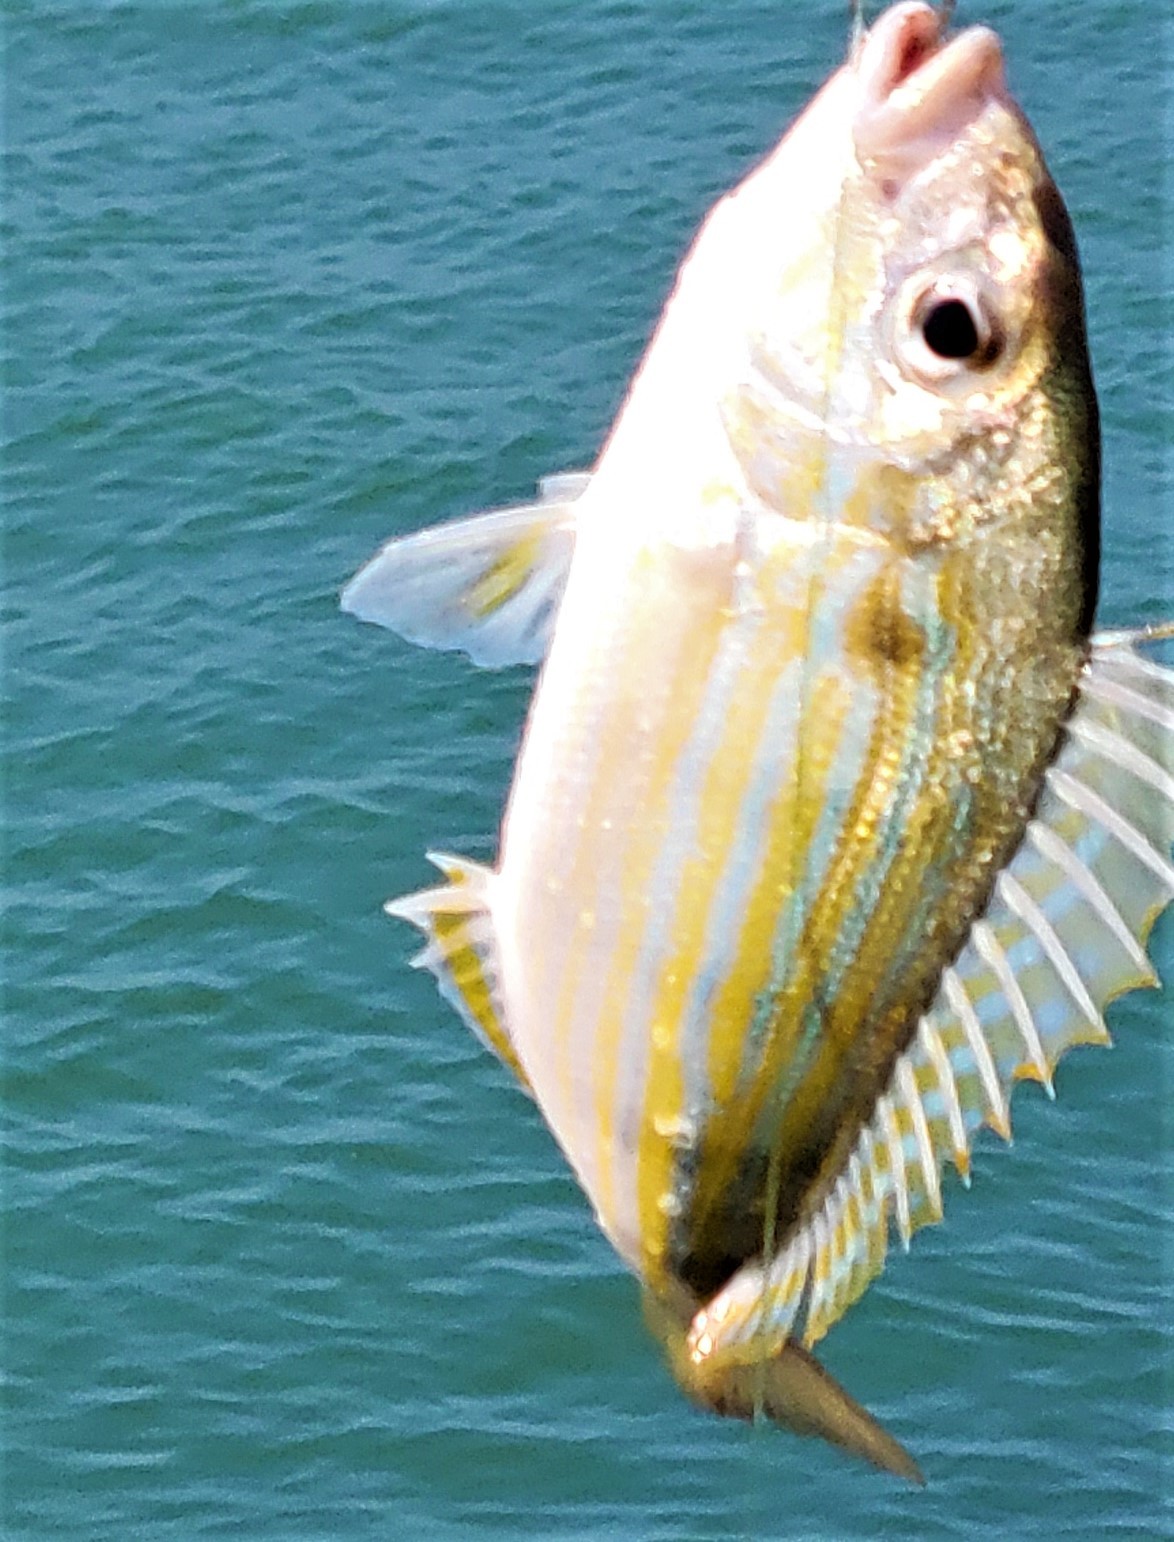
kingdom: Animalia
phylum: Chordata
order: Perciformes
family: Sparidae
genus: Lagodon
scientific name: Lagodon rhomboides
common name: Pinfish
